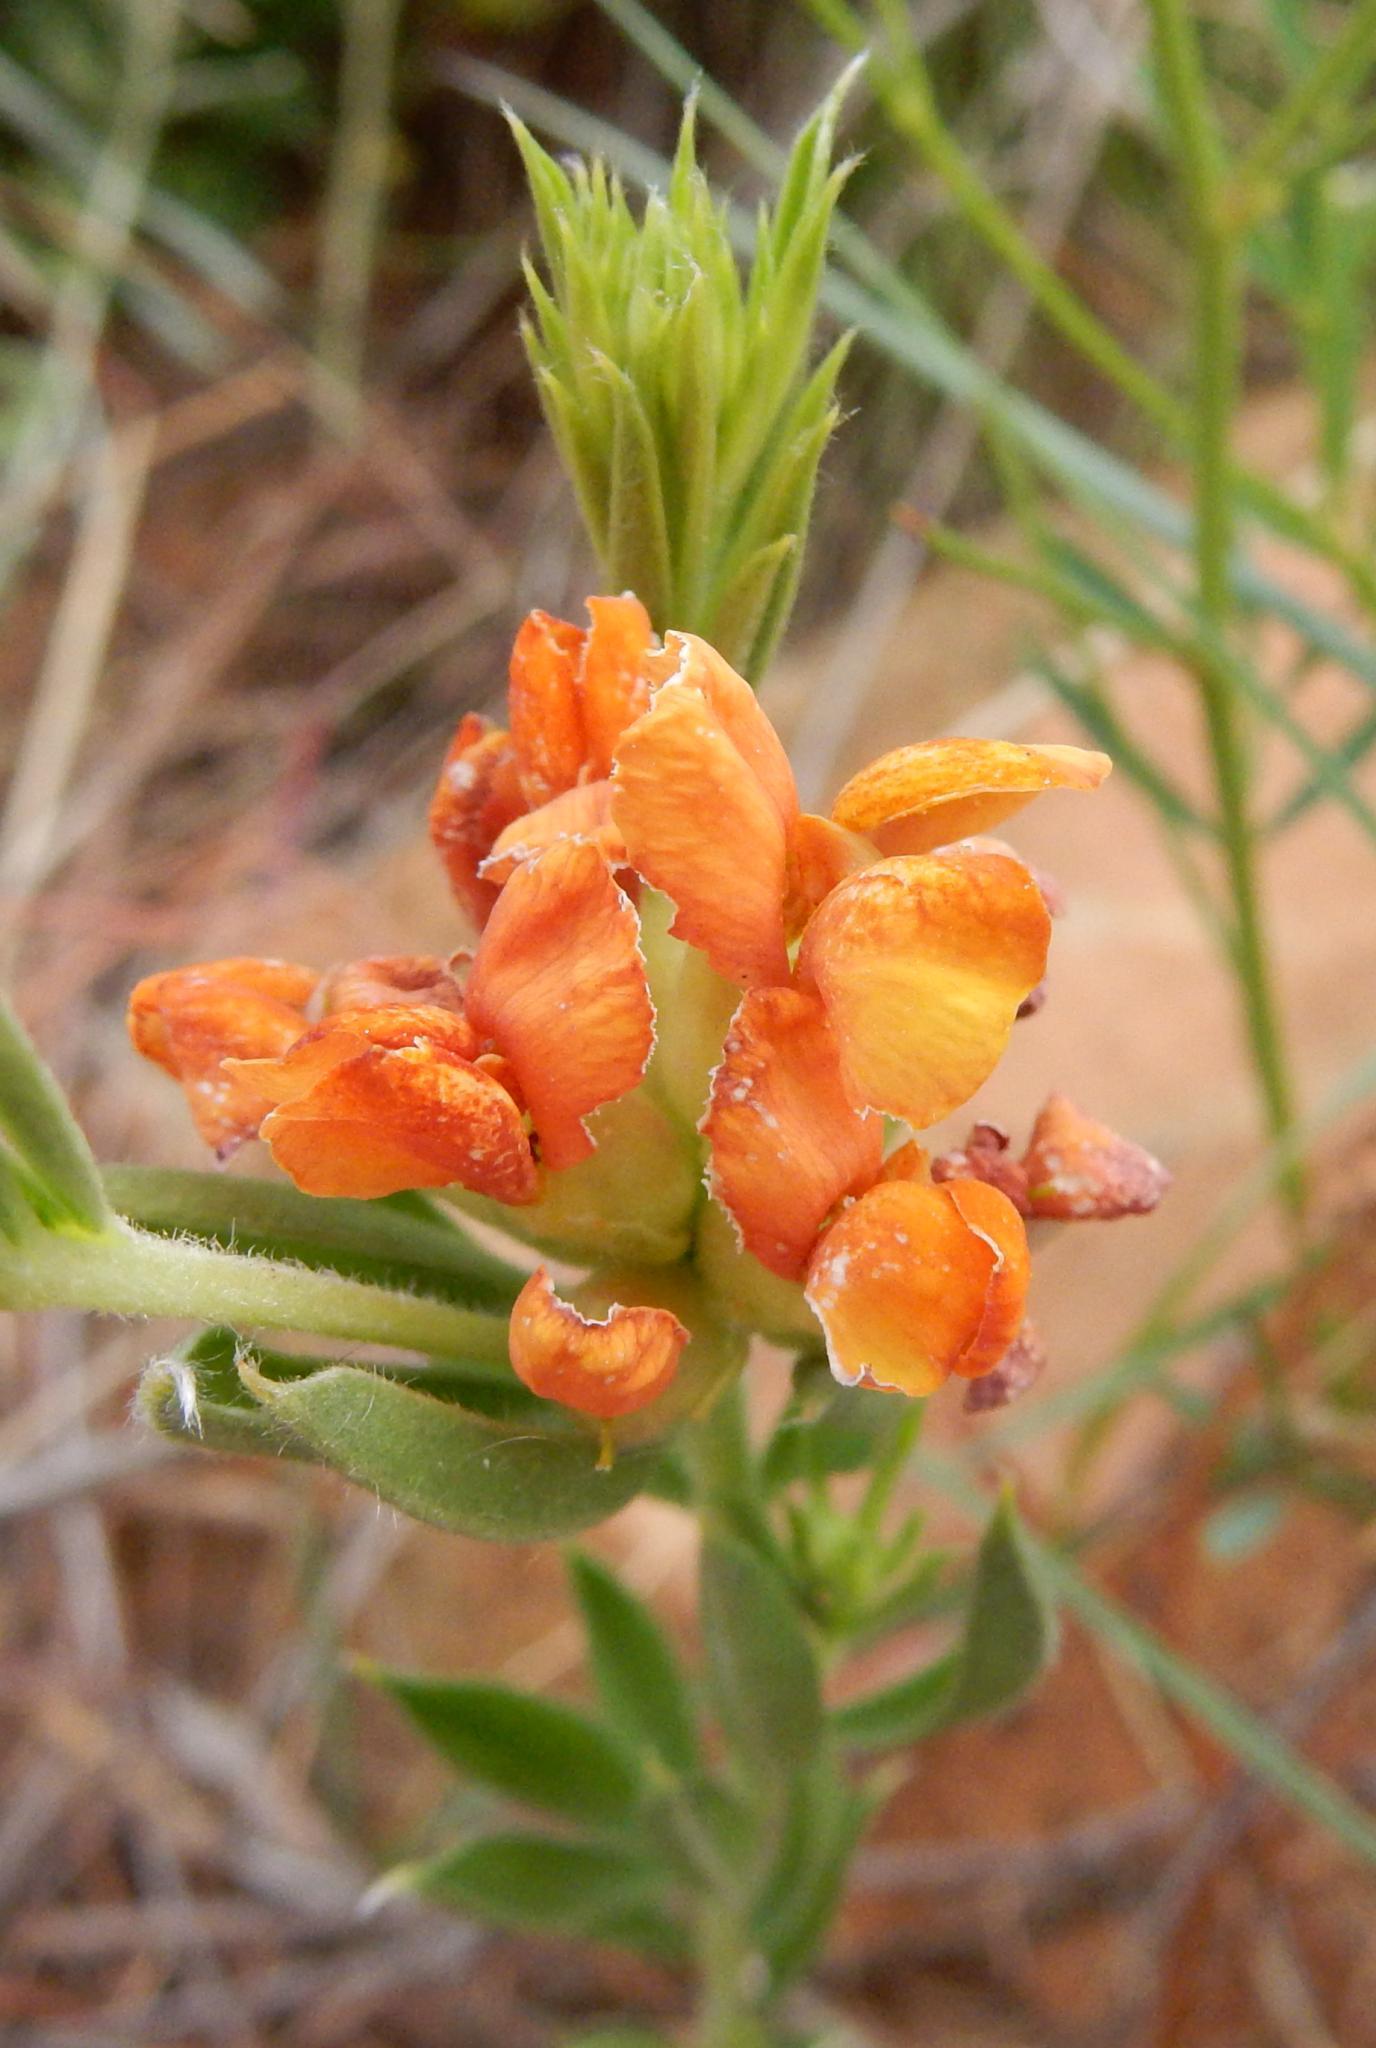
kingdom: Plantae
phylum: Tracheophyta
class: Magnoliopsida
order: Fabales
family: Fabaceae
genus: Pearsonia
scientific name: Pearsonia sessilifolia
